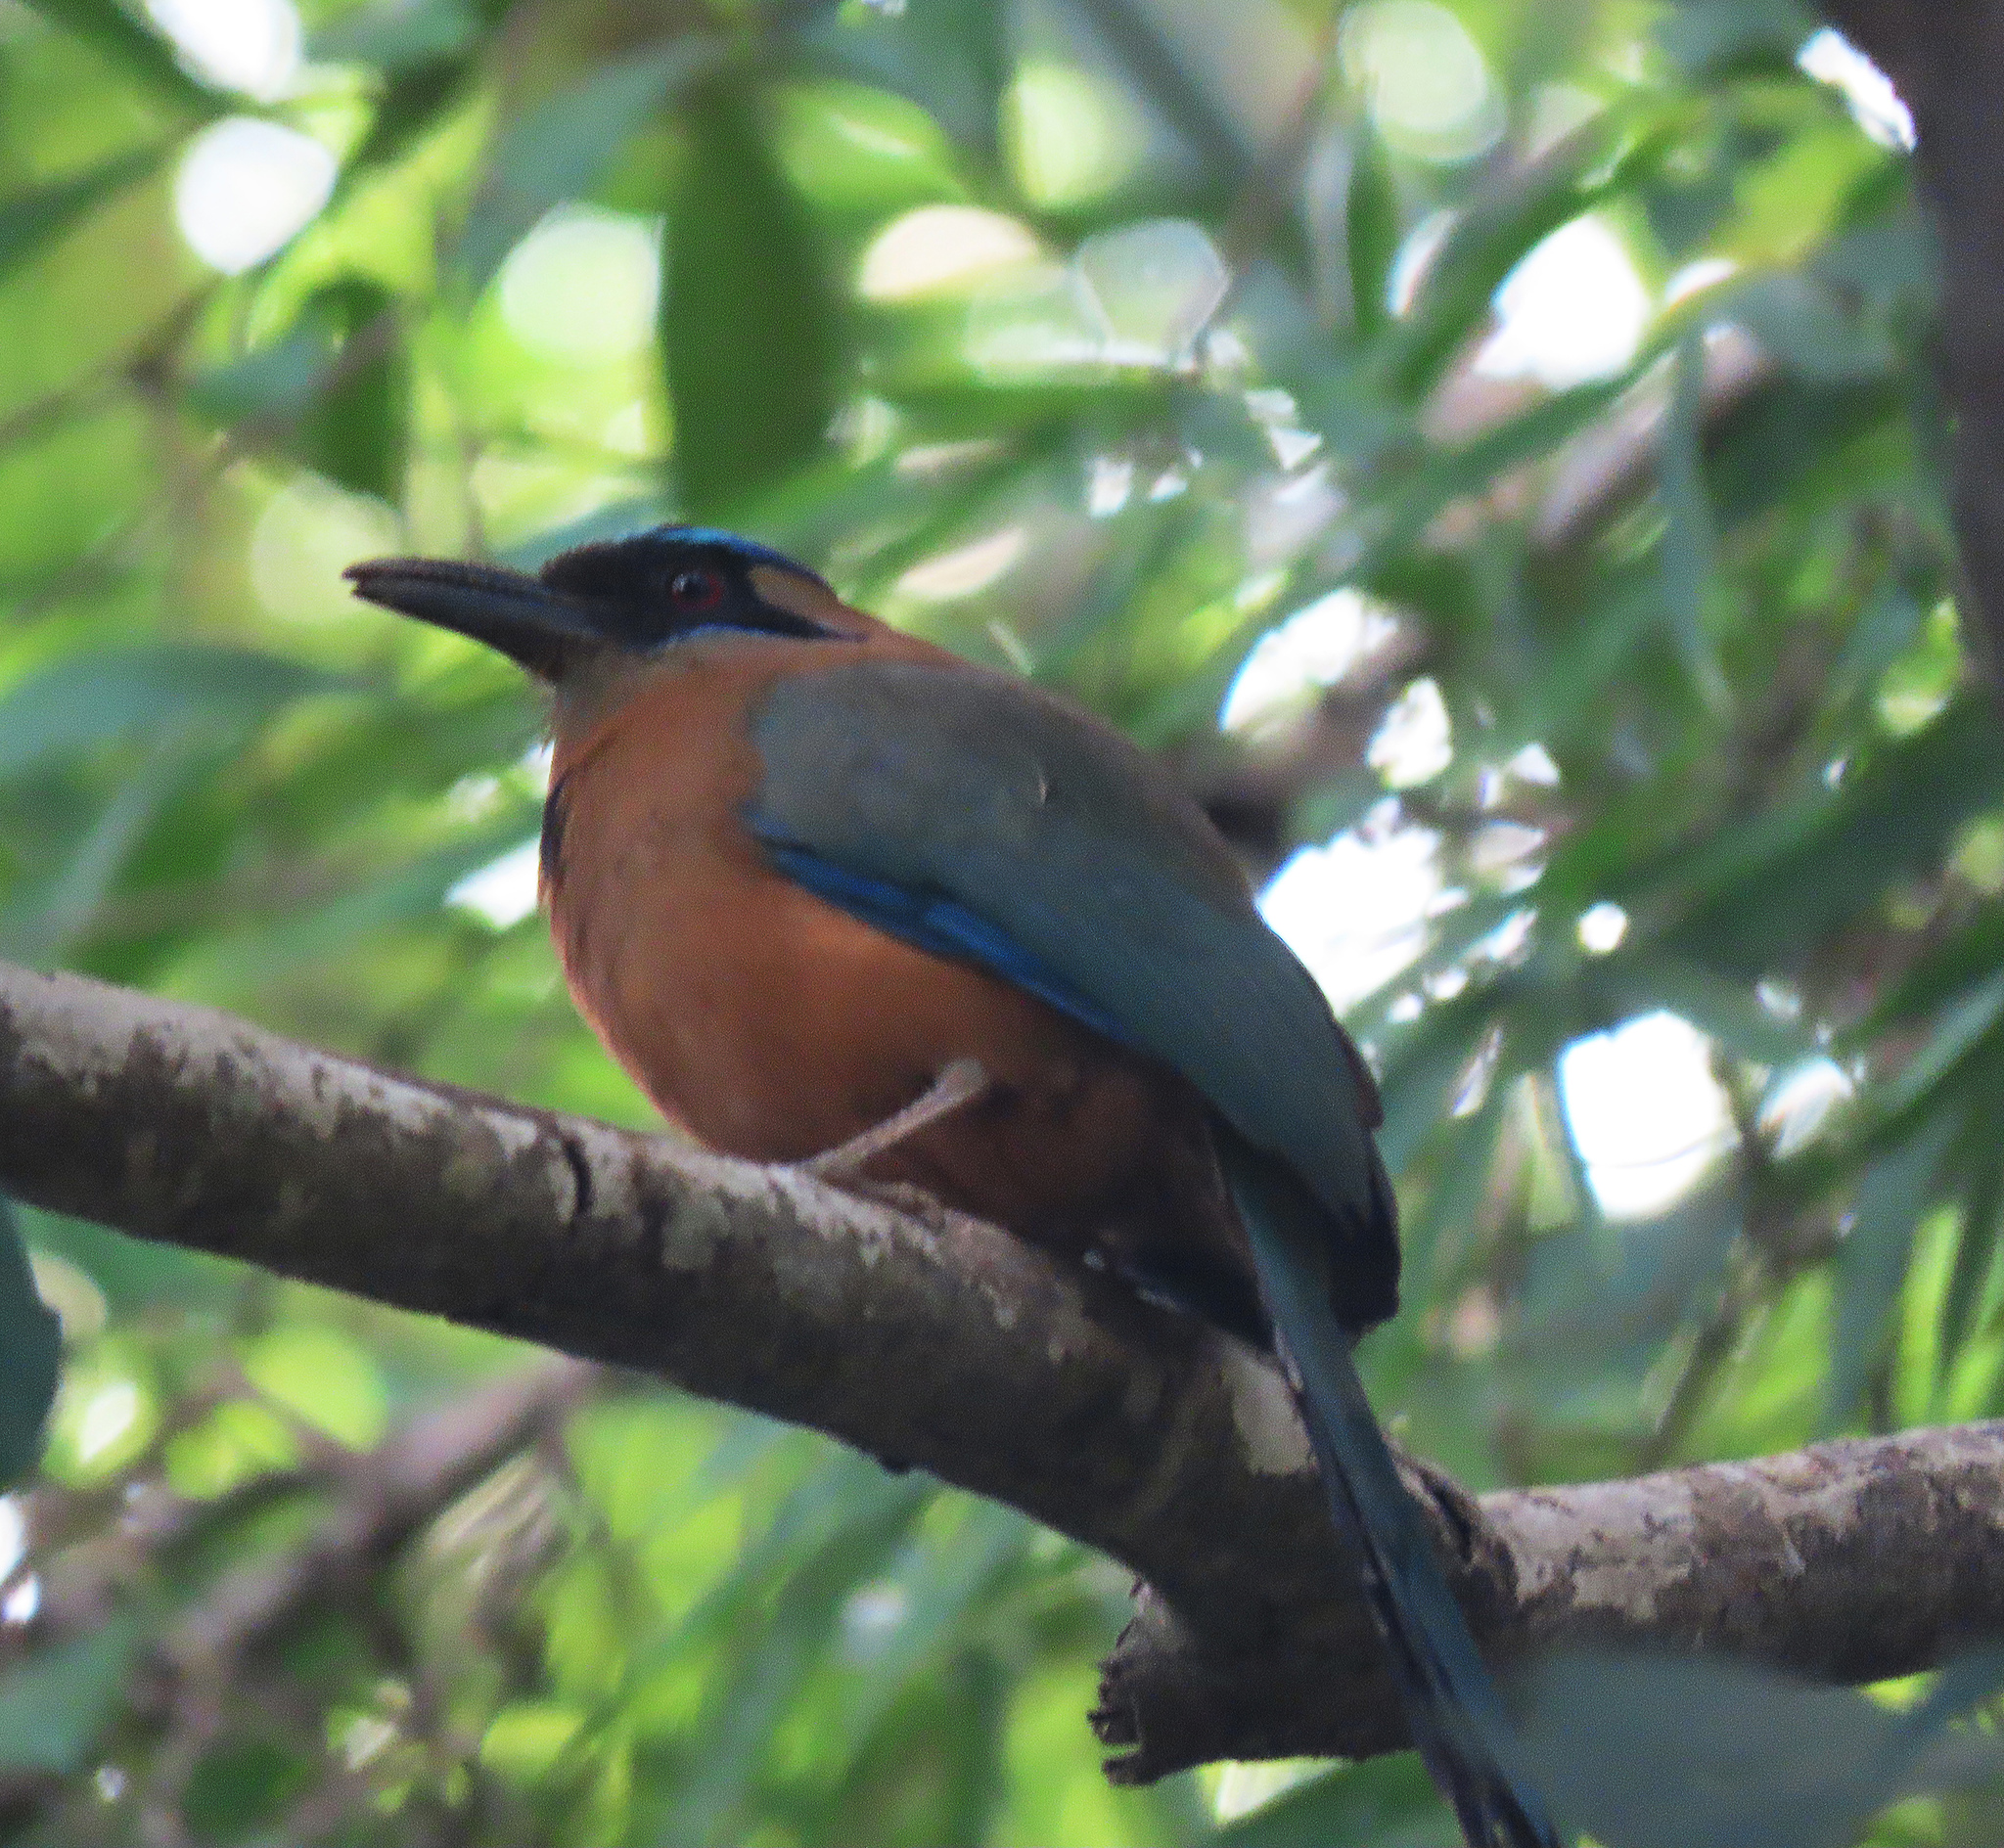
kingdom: Animalia
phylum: Chordata
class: Aves
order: Coraciiformes
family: Momotidae
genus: Momotus
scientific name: Momotus subrufescens
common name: Whooping motmot
